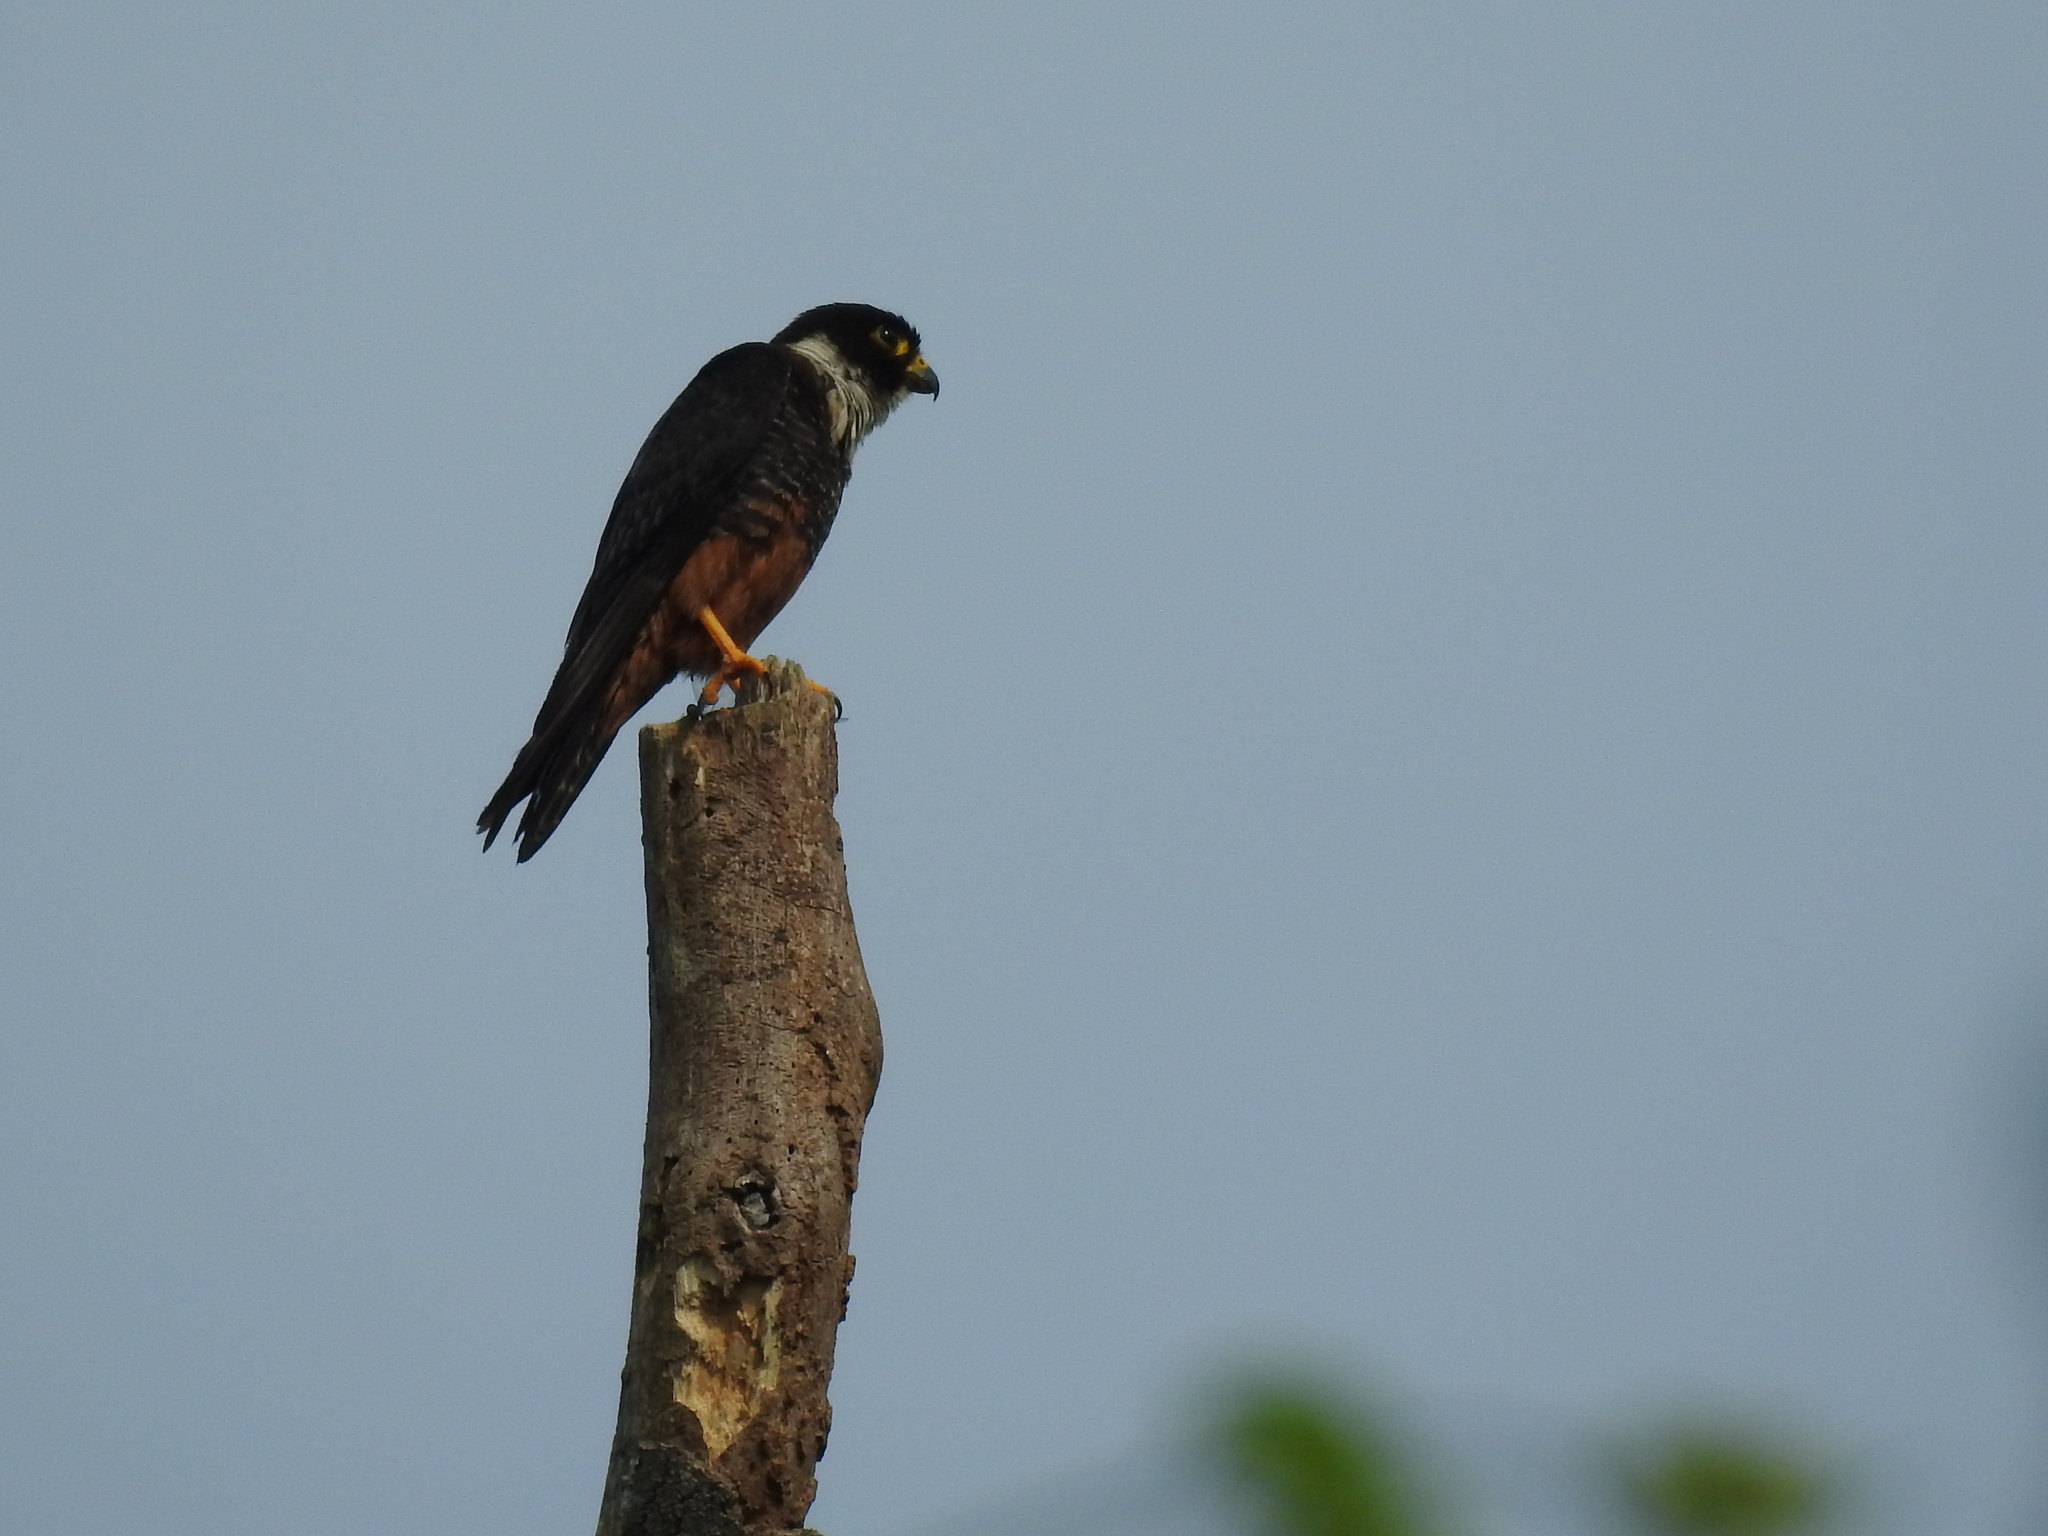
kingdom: Animalia
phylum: Chordata
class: Aves
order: Falconiformes
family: Falconidae
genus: Falco
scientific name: Falco rufigularis
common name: Bat falcon
